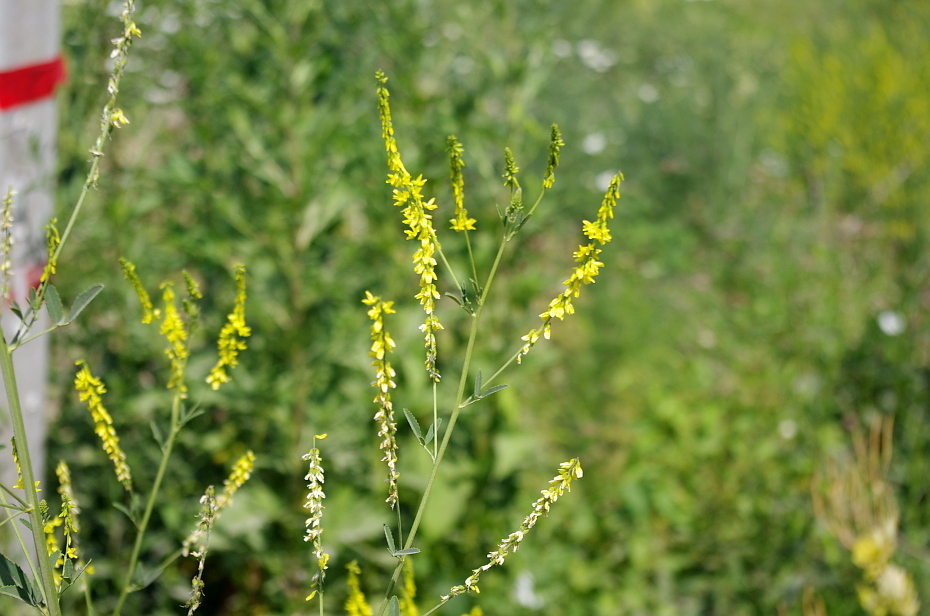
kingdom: Plantae
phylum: Tracheophyta
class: Magnoliopsida
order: Fabales
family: Fabaceae
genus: Melilotus
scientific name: Melilotus officinalis
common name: Sweetclover
